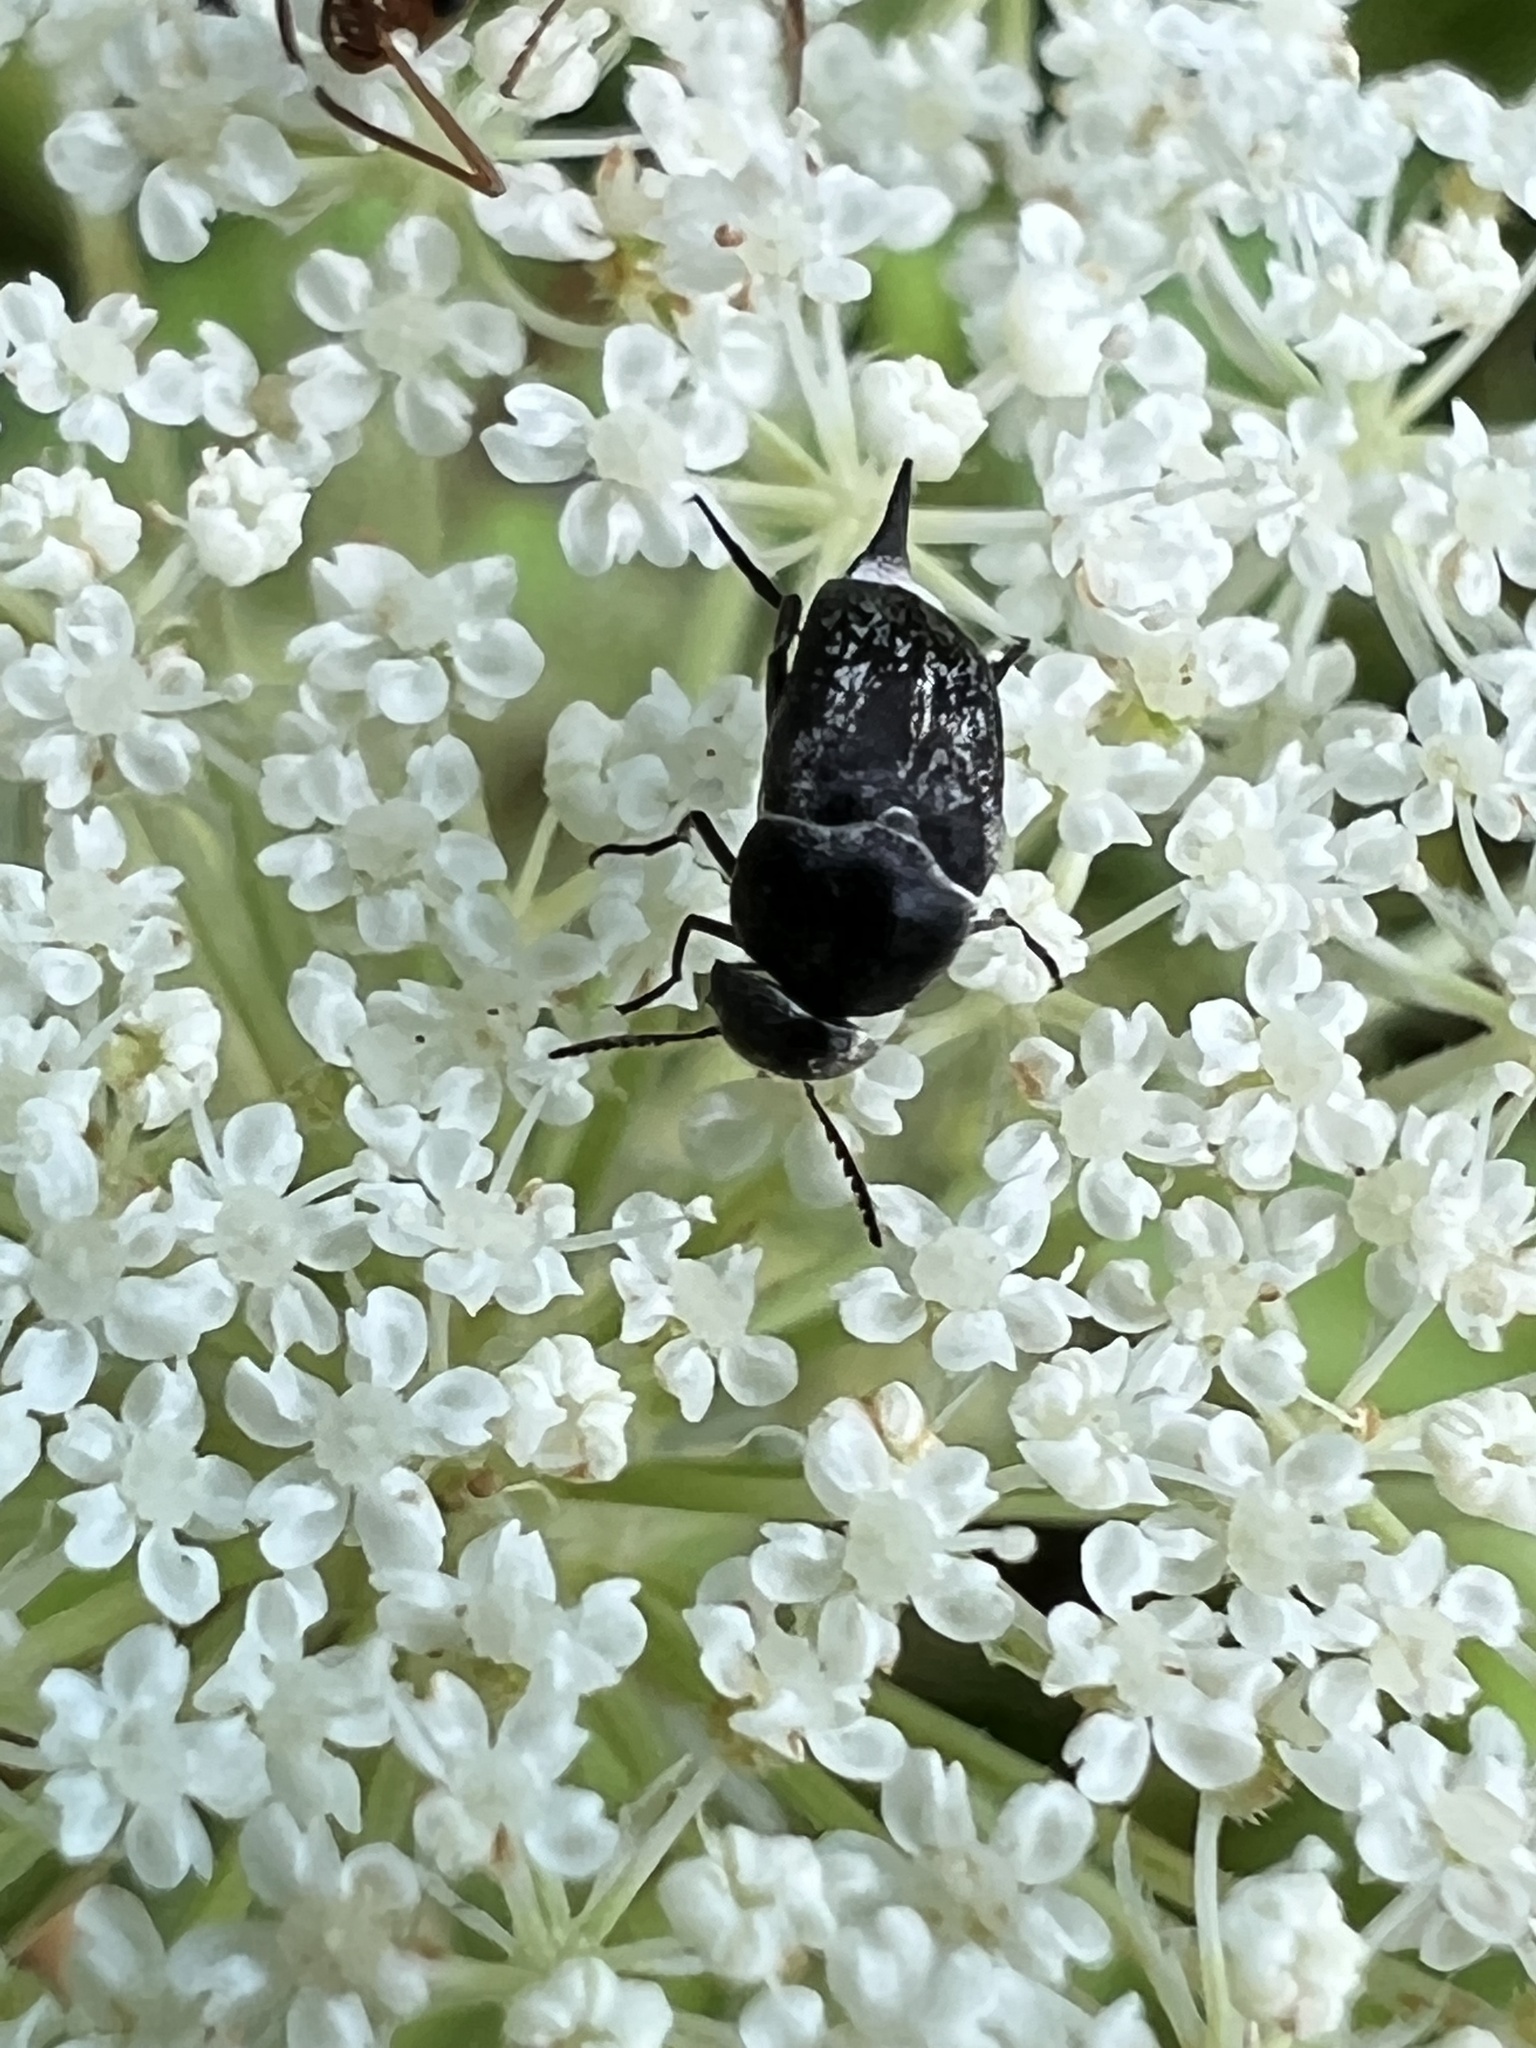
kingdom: Animalia
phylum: Arthropoda
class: Insecta
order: Coleoptera
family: Mordellidae
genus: Mordella
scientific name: Mordella marginata
